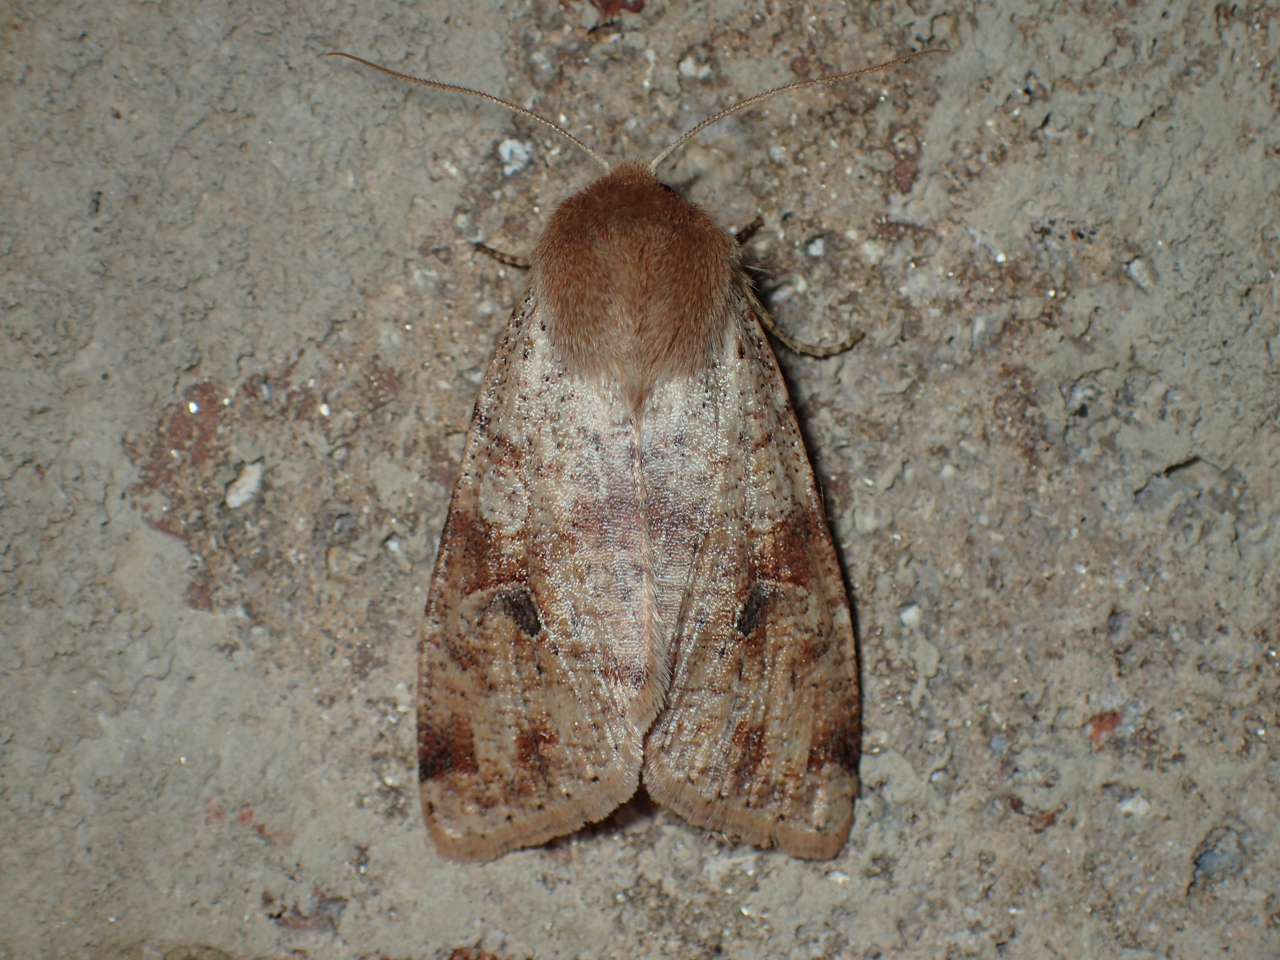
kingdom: Animalia
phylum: Arthropoda
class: Insecta
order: Lepidoptera
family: Noctuidae
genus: Orthosia
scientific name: Orthosia rubescens
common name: Ruby quaker
